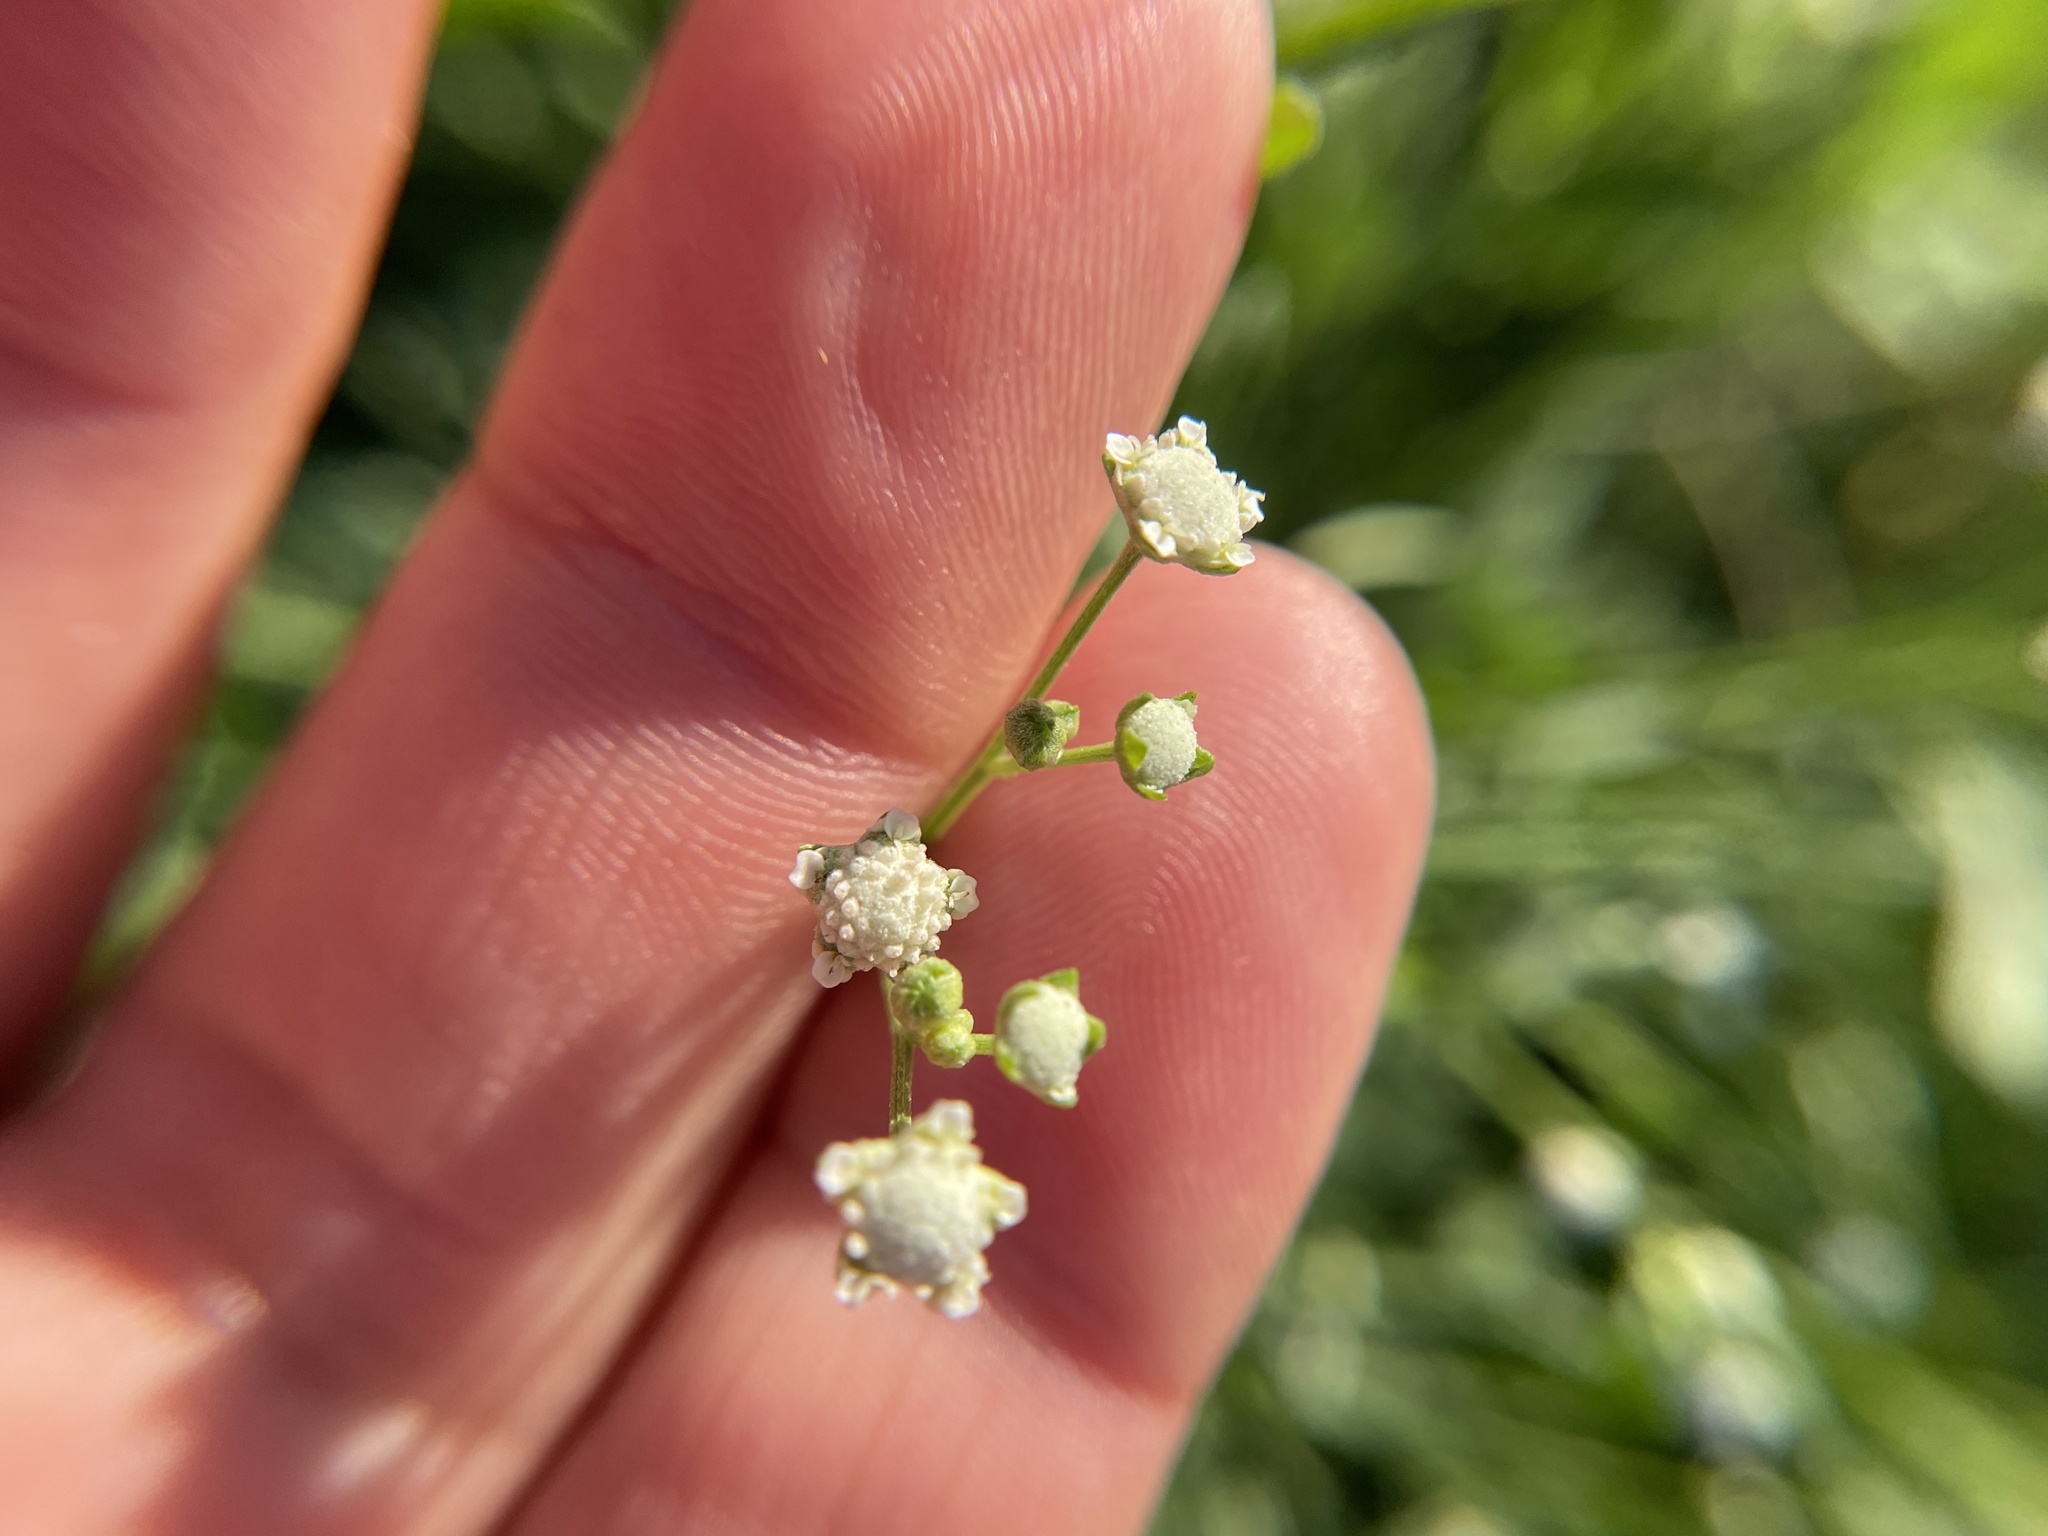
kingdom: Plantae
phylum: Tracheophyta
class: Magnoliopsida
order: Asterales
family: Asteraceae
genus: Parthenium
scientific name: Parthenium hysterophorus
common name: Santa maria feverfew
